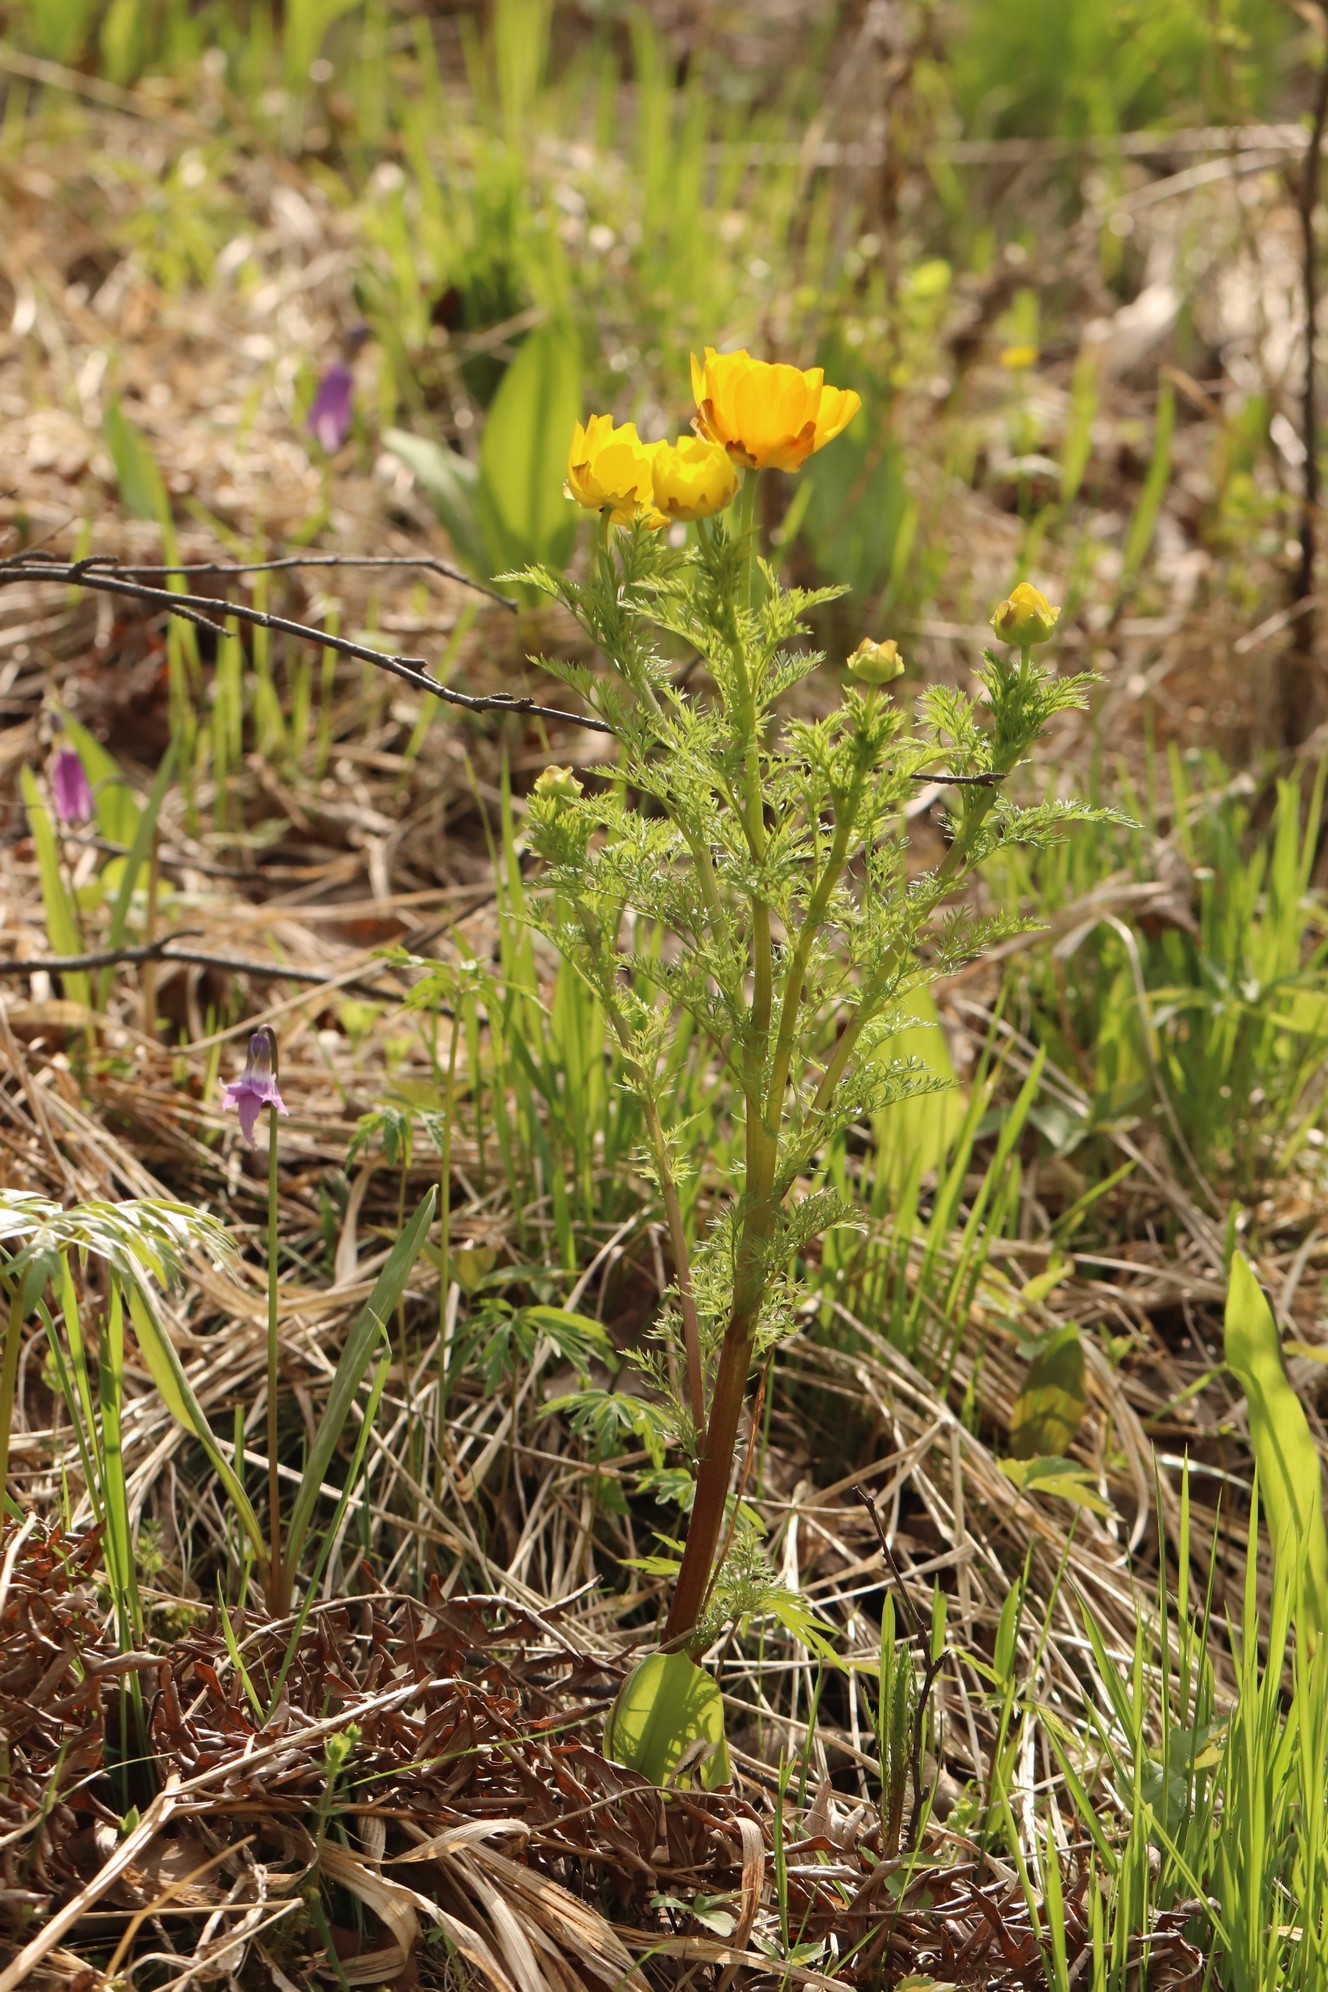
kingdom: Plantae
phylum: Tracheophyta
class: Magnoliopsida
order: Ranunculales
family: Ranunculaceae
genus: Adonis
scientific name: Adonis
